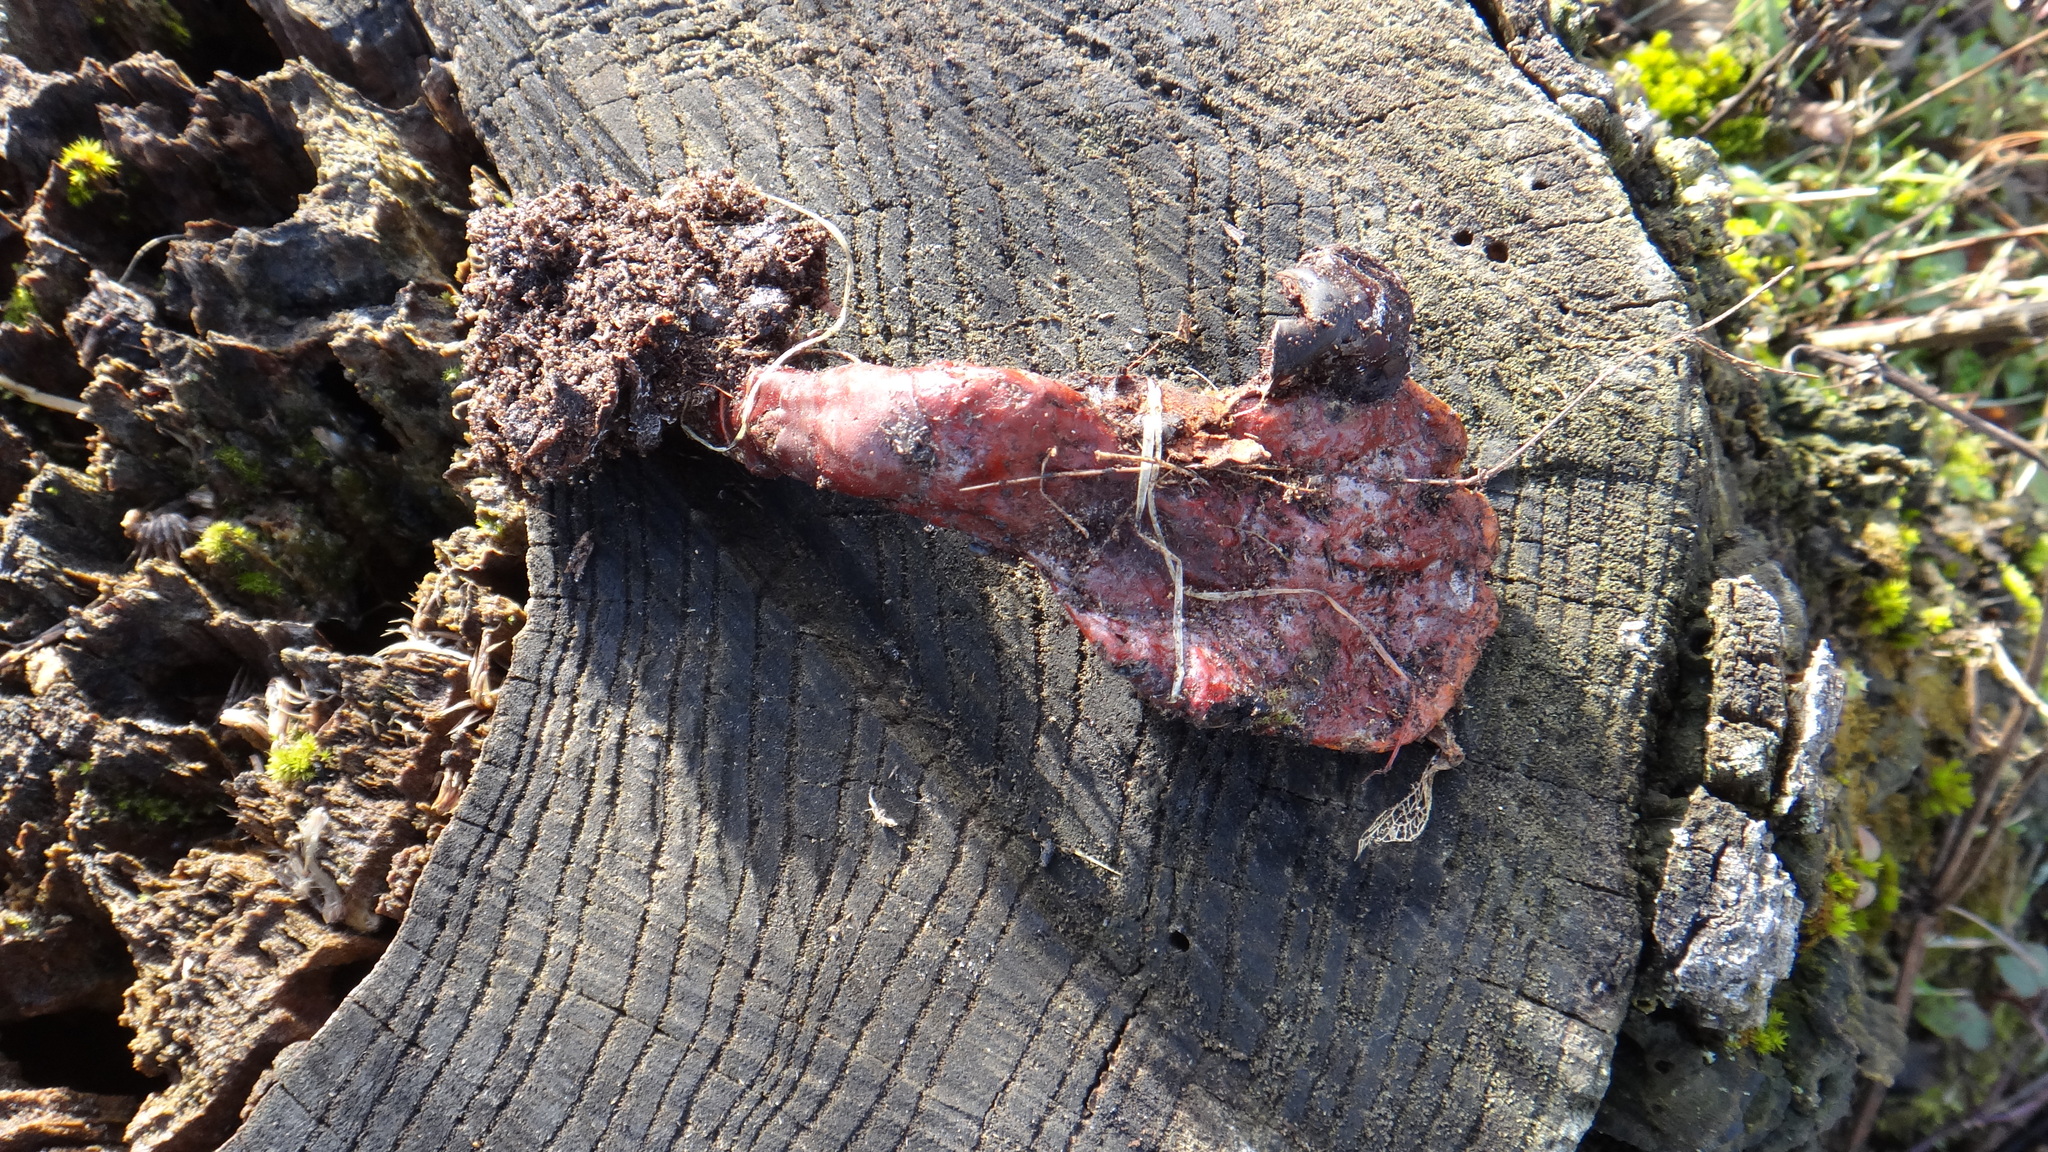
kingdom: Fungi
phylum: Basidiomycota
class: Agaricomycetes
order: Polyporales
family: Polyporaceae
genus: Ganoderma
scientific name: Ganoderma lucidum
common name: Lacquered bracket
